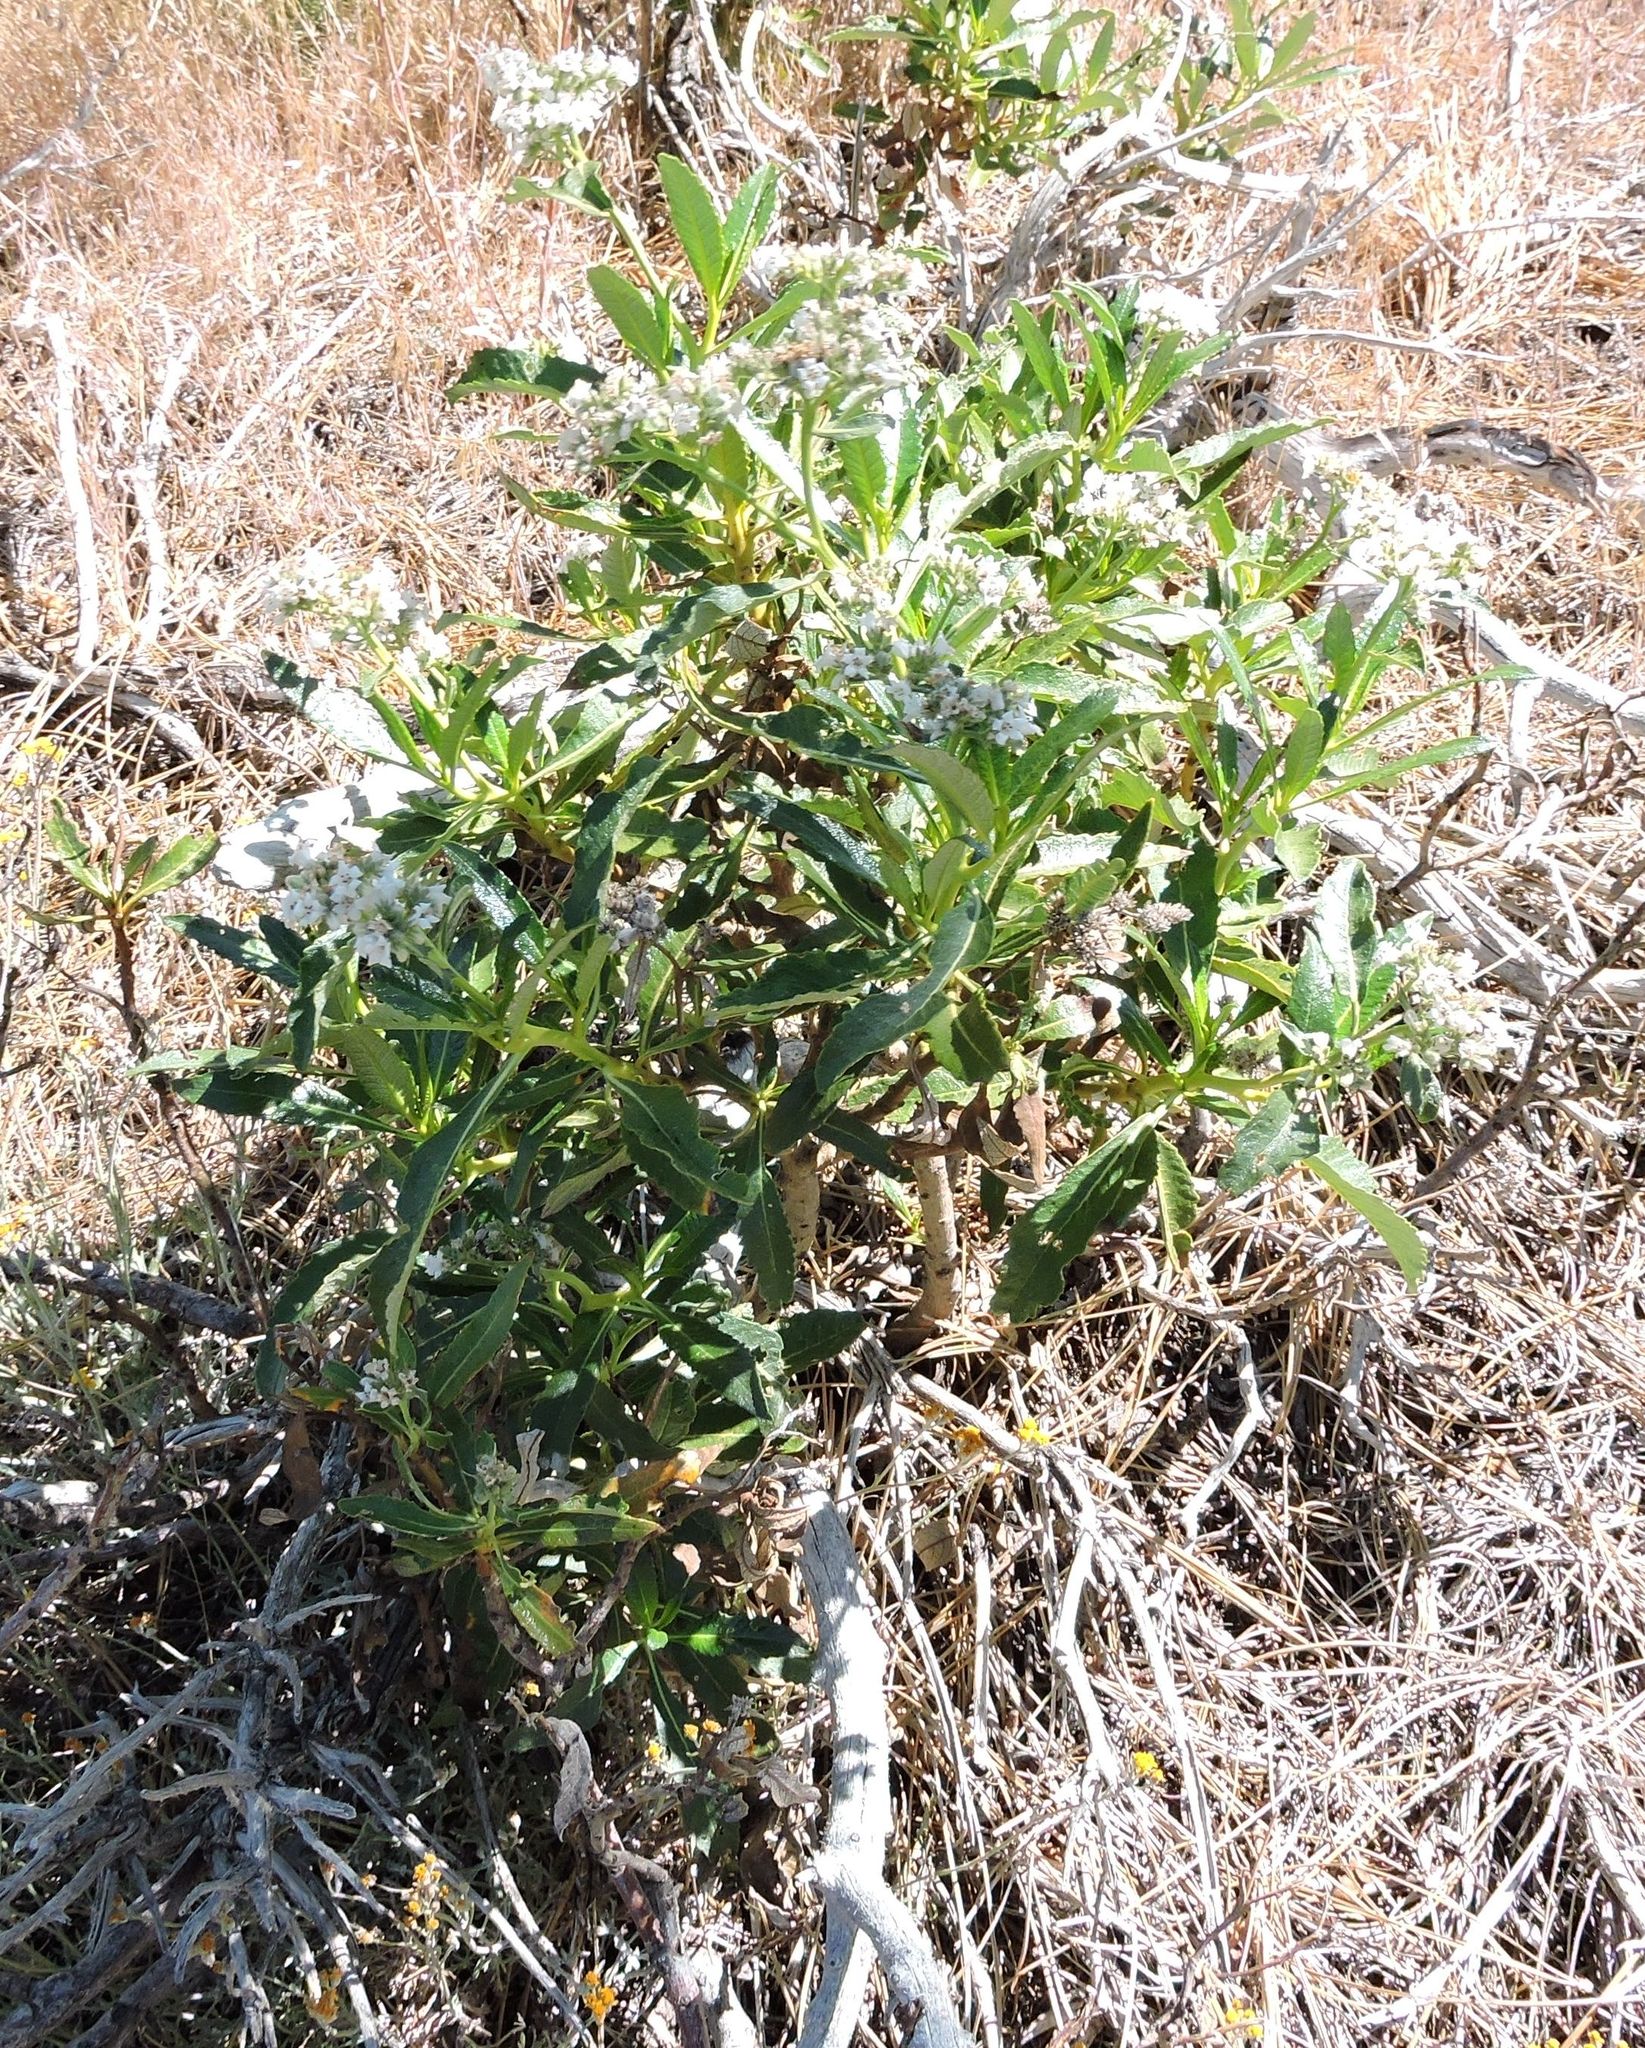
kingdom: Plantae
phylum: Tracheophyta
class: Magnoliopsida
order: Boraginales
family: Namaceae
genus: Eriodictyon
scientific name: Eriodictyon trichocalyx
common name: Hairy yerba-santa
